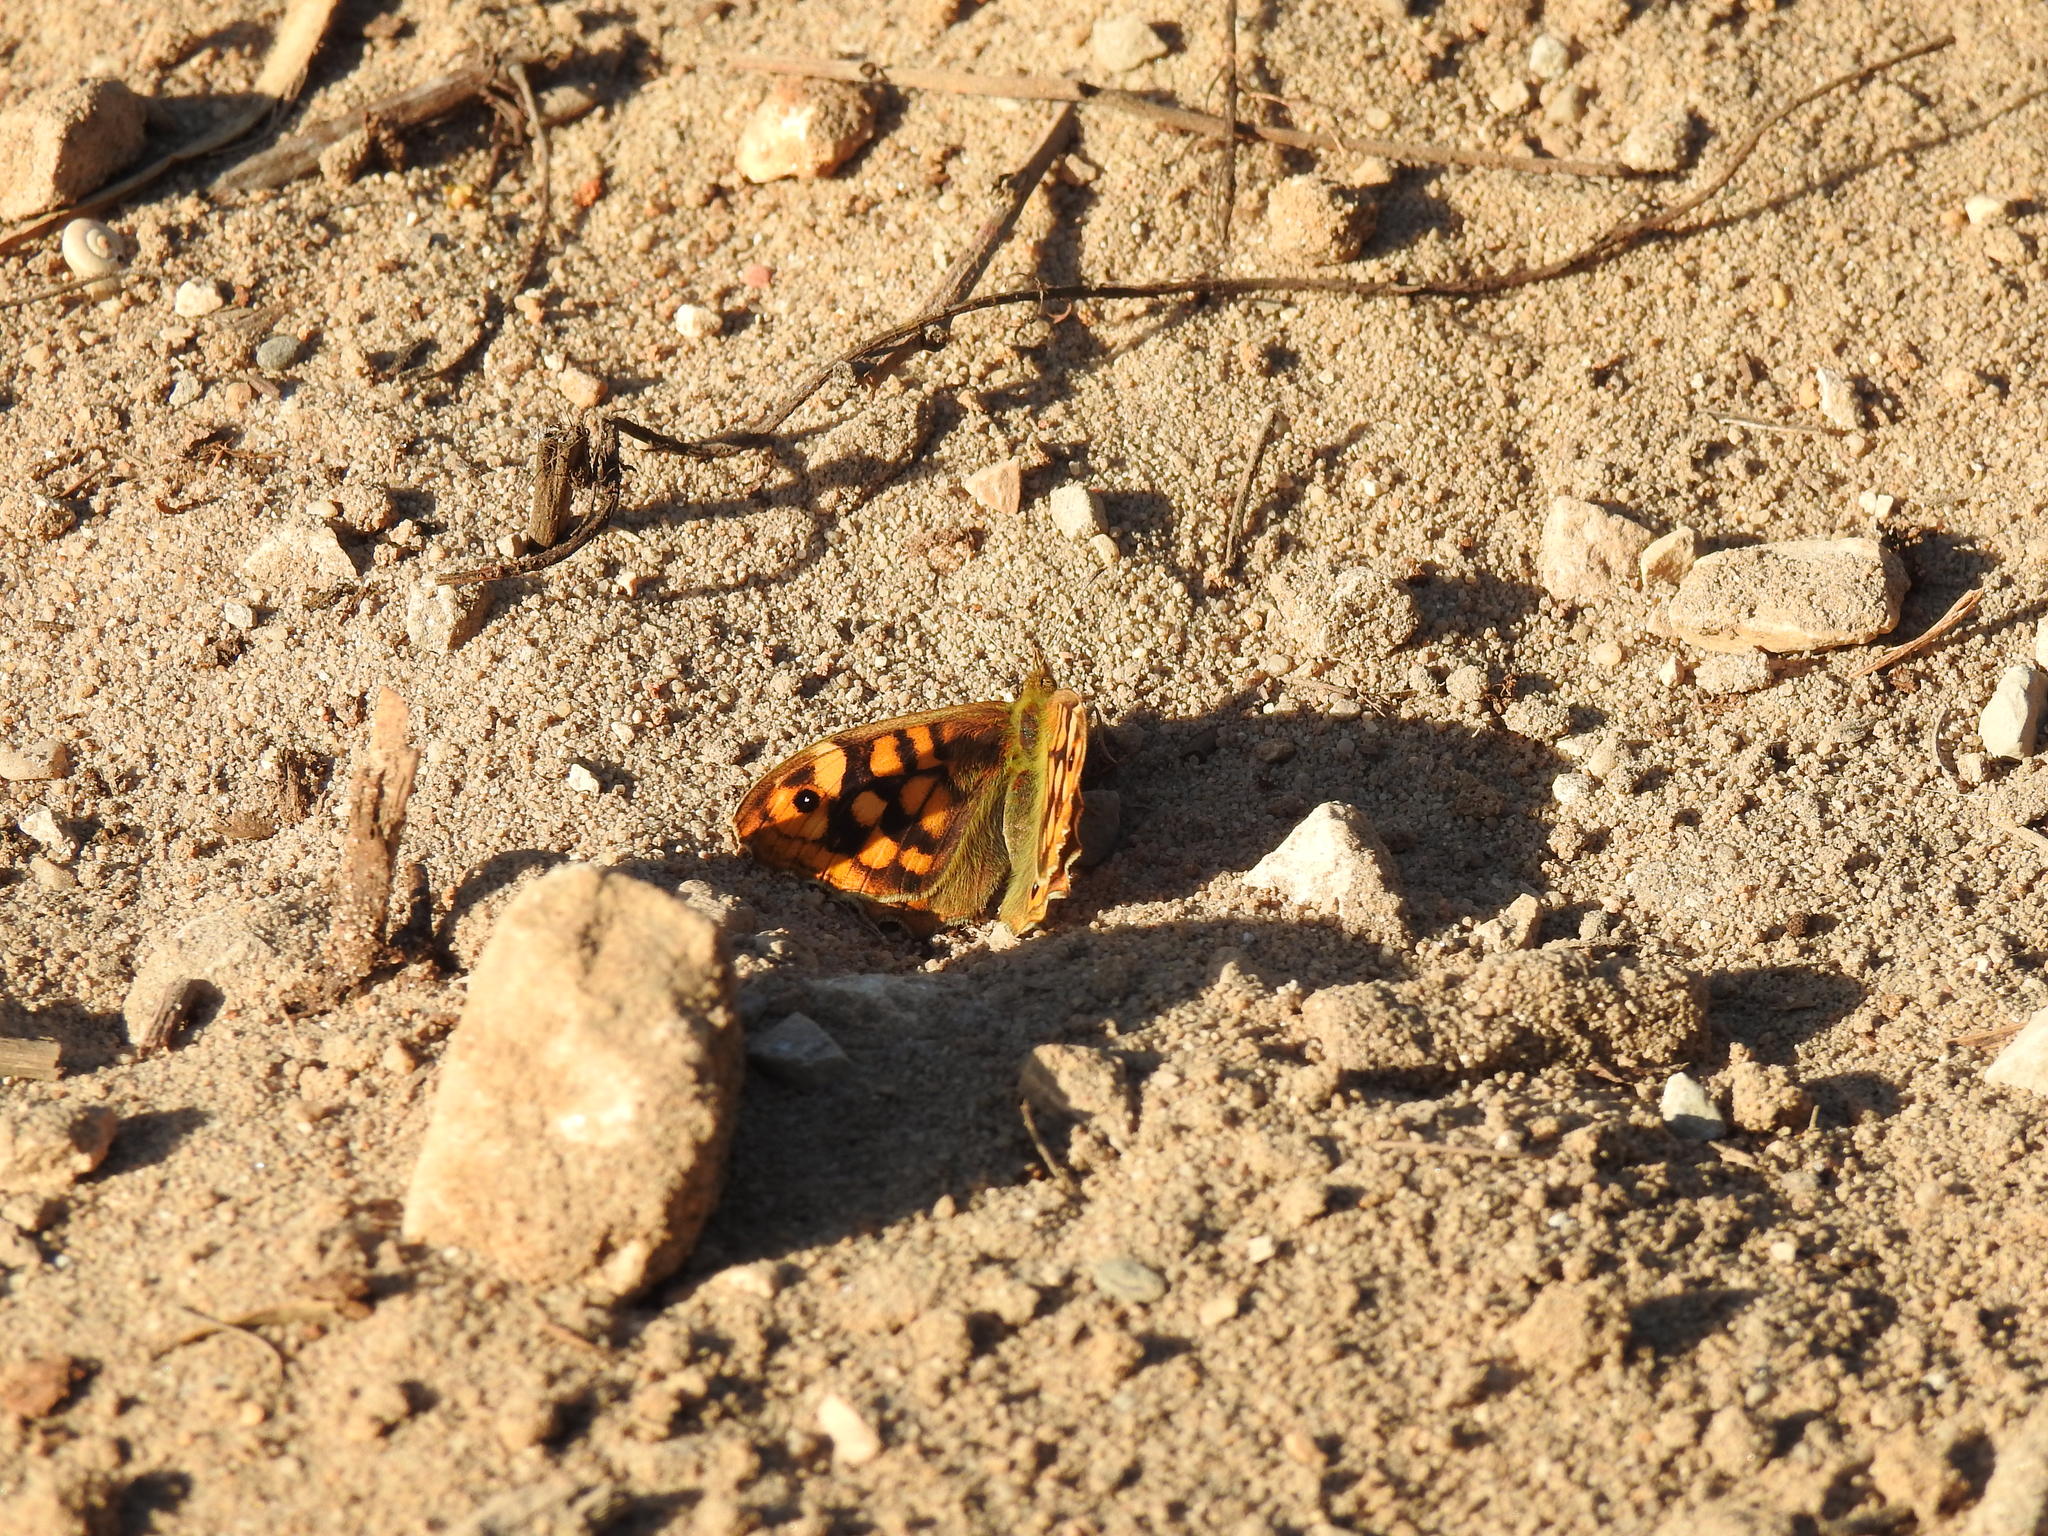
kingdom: Animalia
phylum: Arthropoda
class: Insecta
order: Lepidoptera
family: Nymphalidae
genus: Pararge
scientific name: Pararge aegeria
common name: Speckled wood
